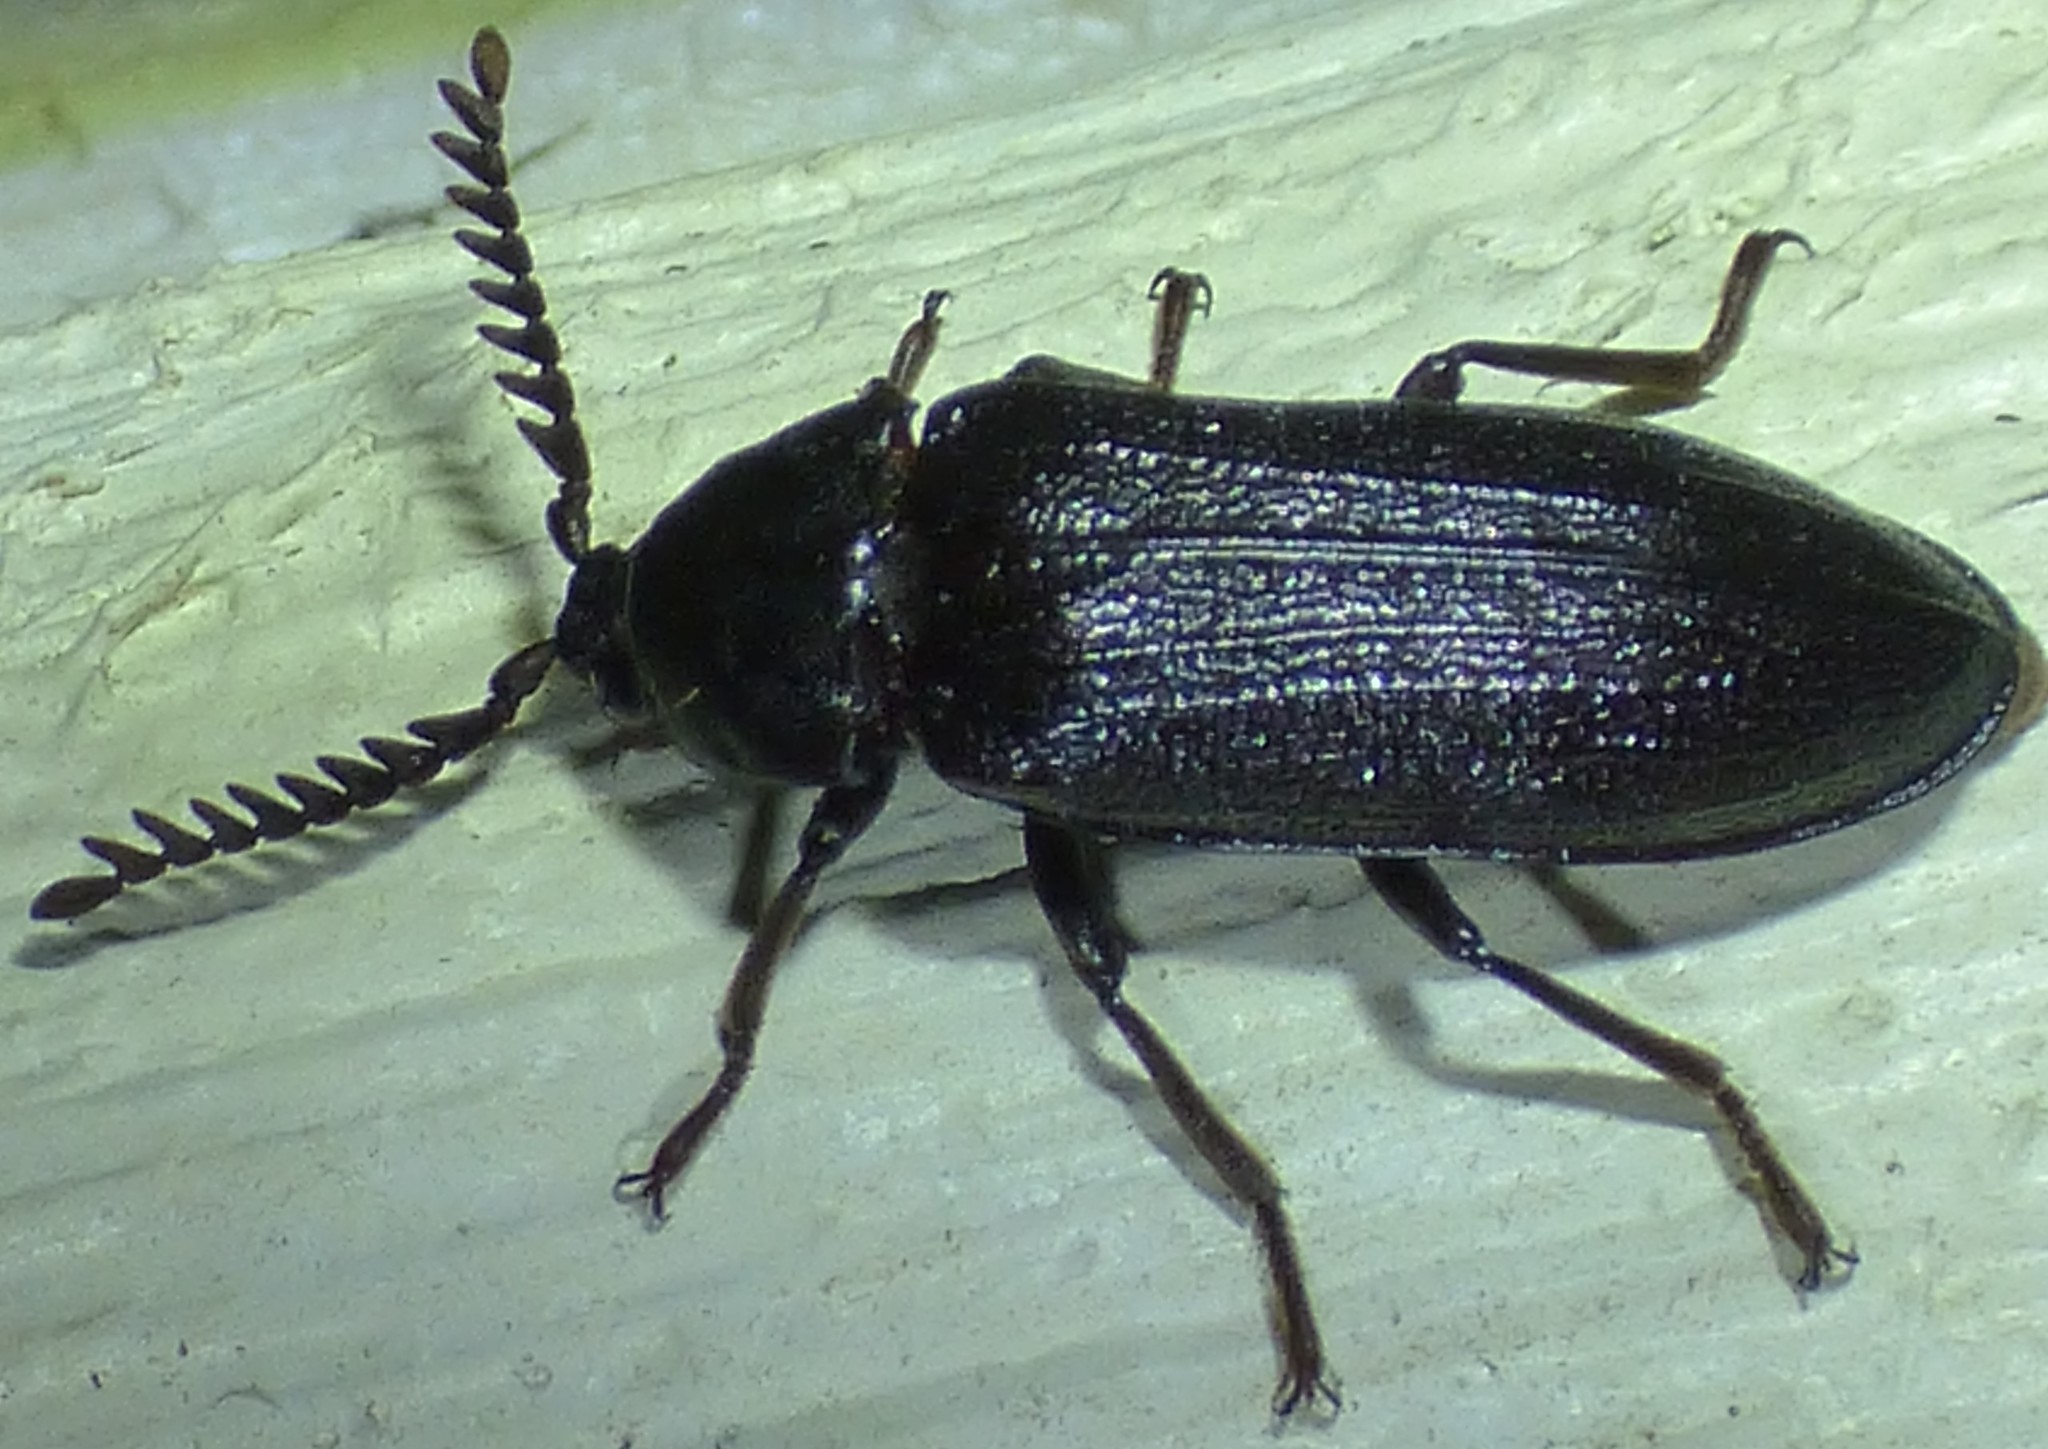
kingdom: Animalia
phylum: Arthropoda
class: Insecta
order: Coleoptera
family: Callirhipidae
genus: Zenoa
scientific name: Zenoa picea
